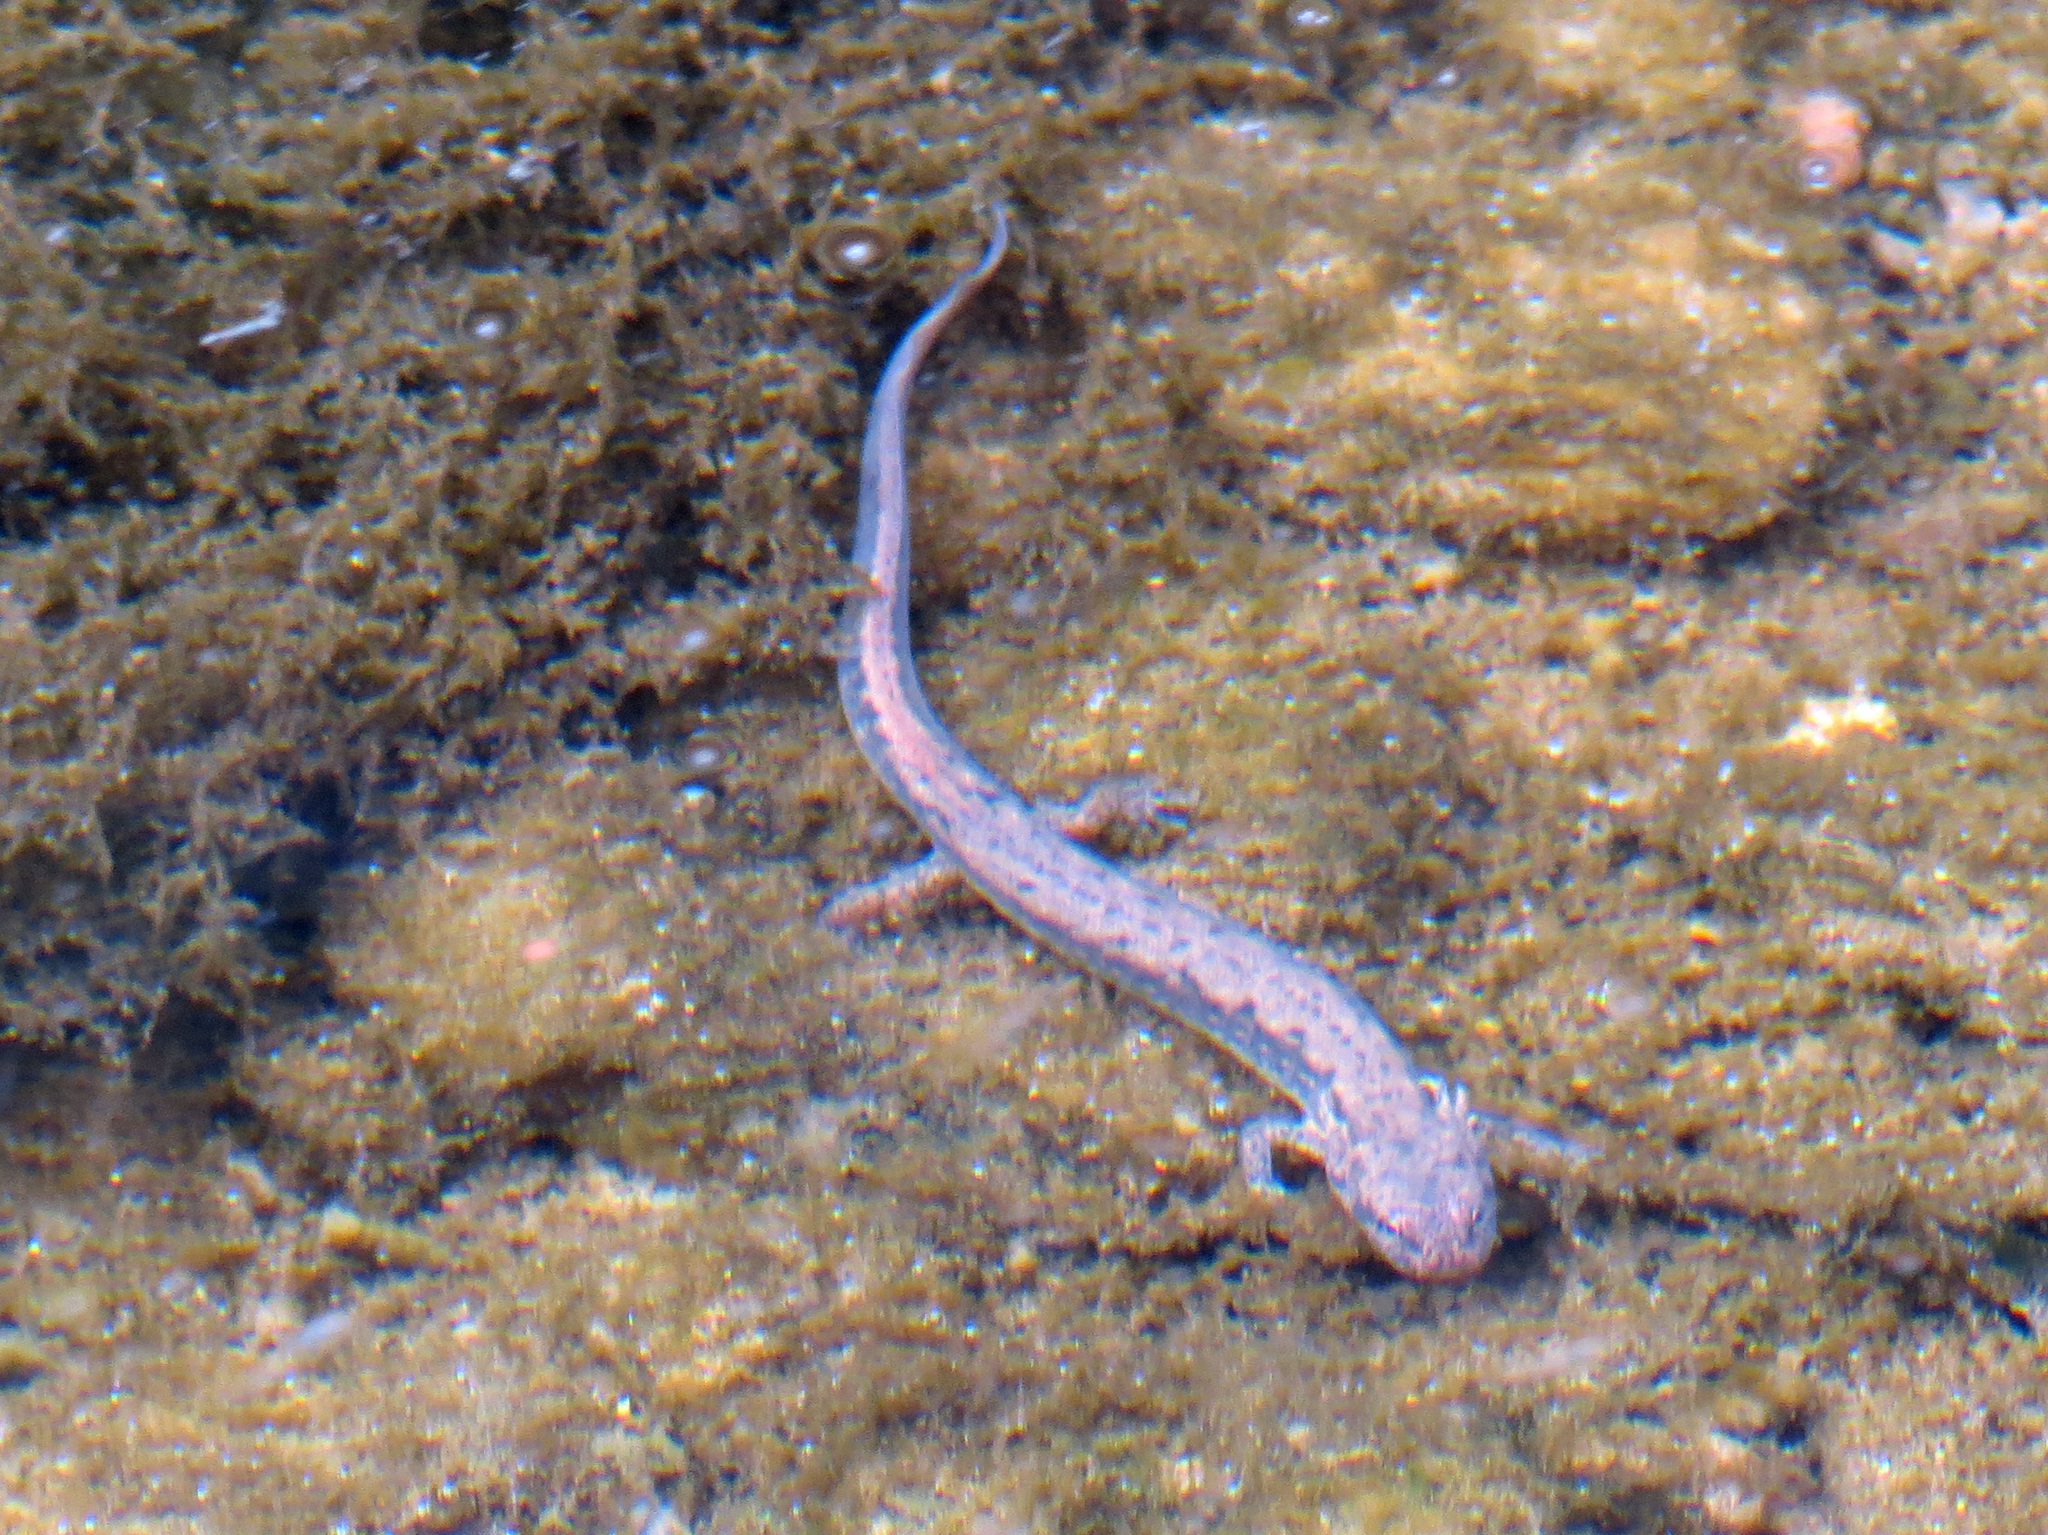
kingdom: Animalia
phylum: Chordata
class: Amphibia
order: Caudata
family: Plethodontidae
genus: Eurycea
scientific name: Eurycea bislineata
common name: Northern two-lined salamander
